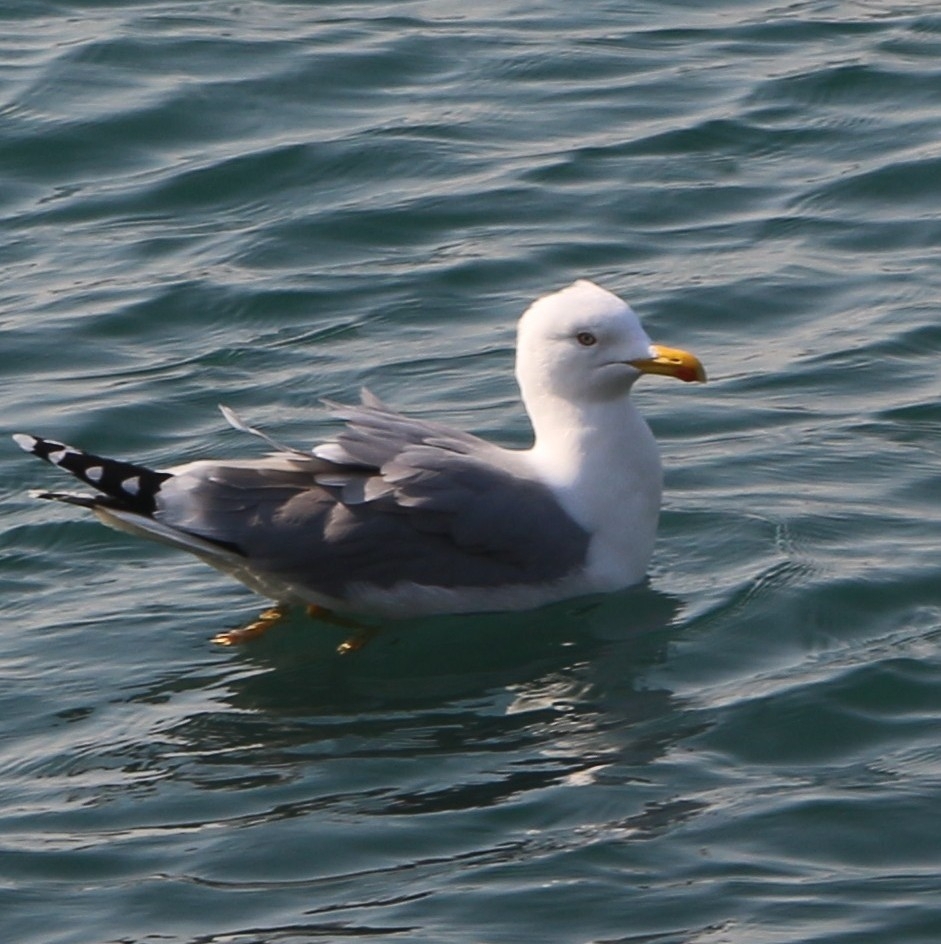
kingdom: Animalia
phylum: Chordata
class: Aves
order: Charadriiformes
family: Laridae
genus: Larus
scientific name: Larus michahellis
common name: Yellow-legged gull
